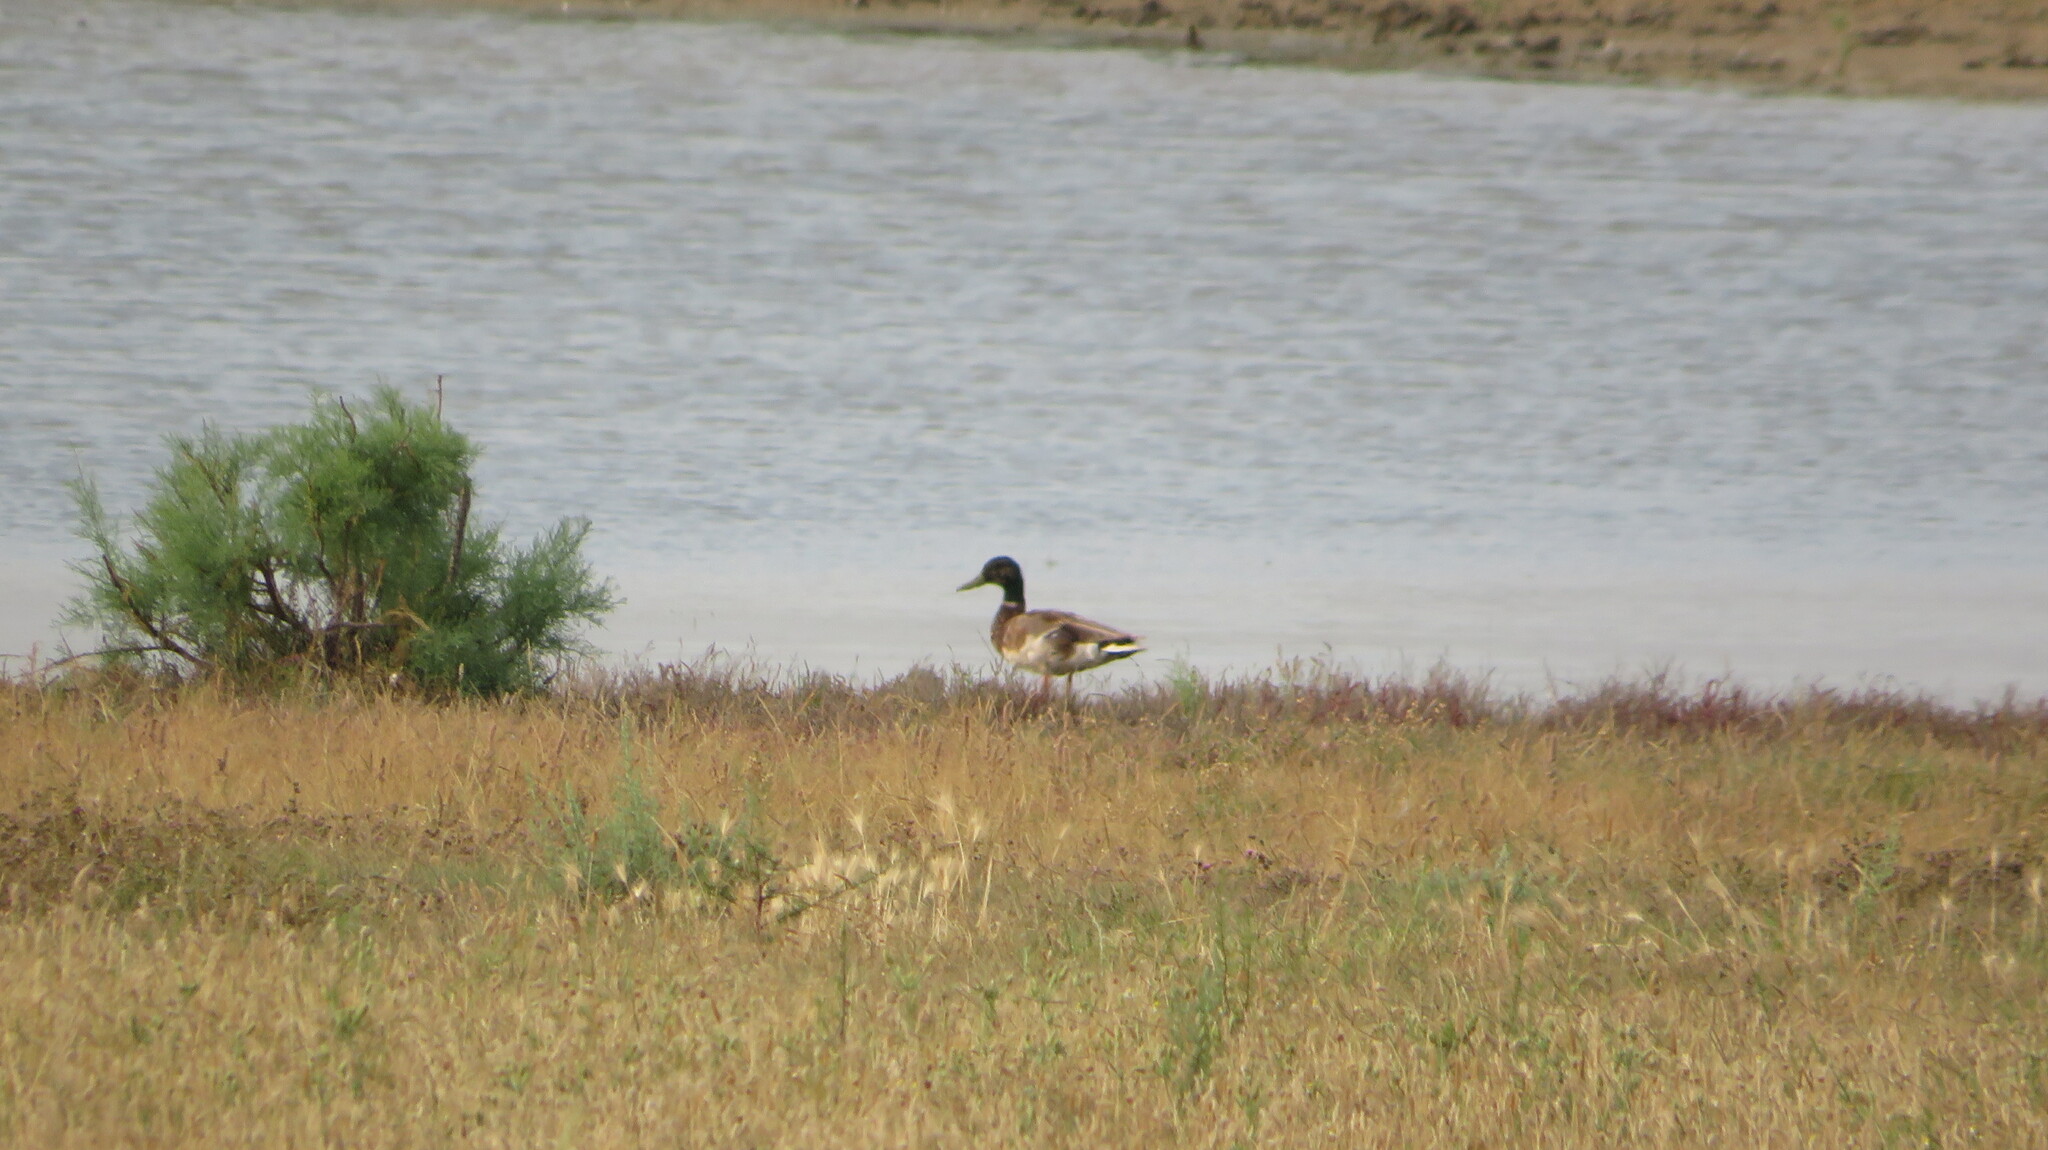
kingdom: Animalia
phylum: Chordata
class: Aves
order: Anseriformes
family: Anatidae
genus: Anas
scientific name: Anas platyrhynchos
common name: Mallard
